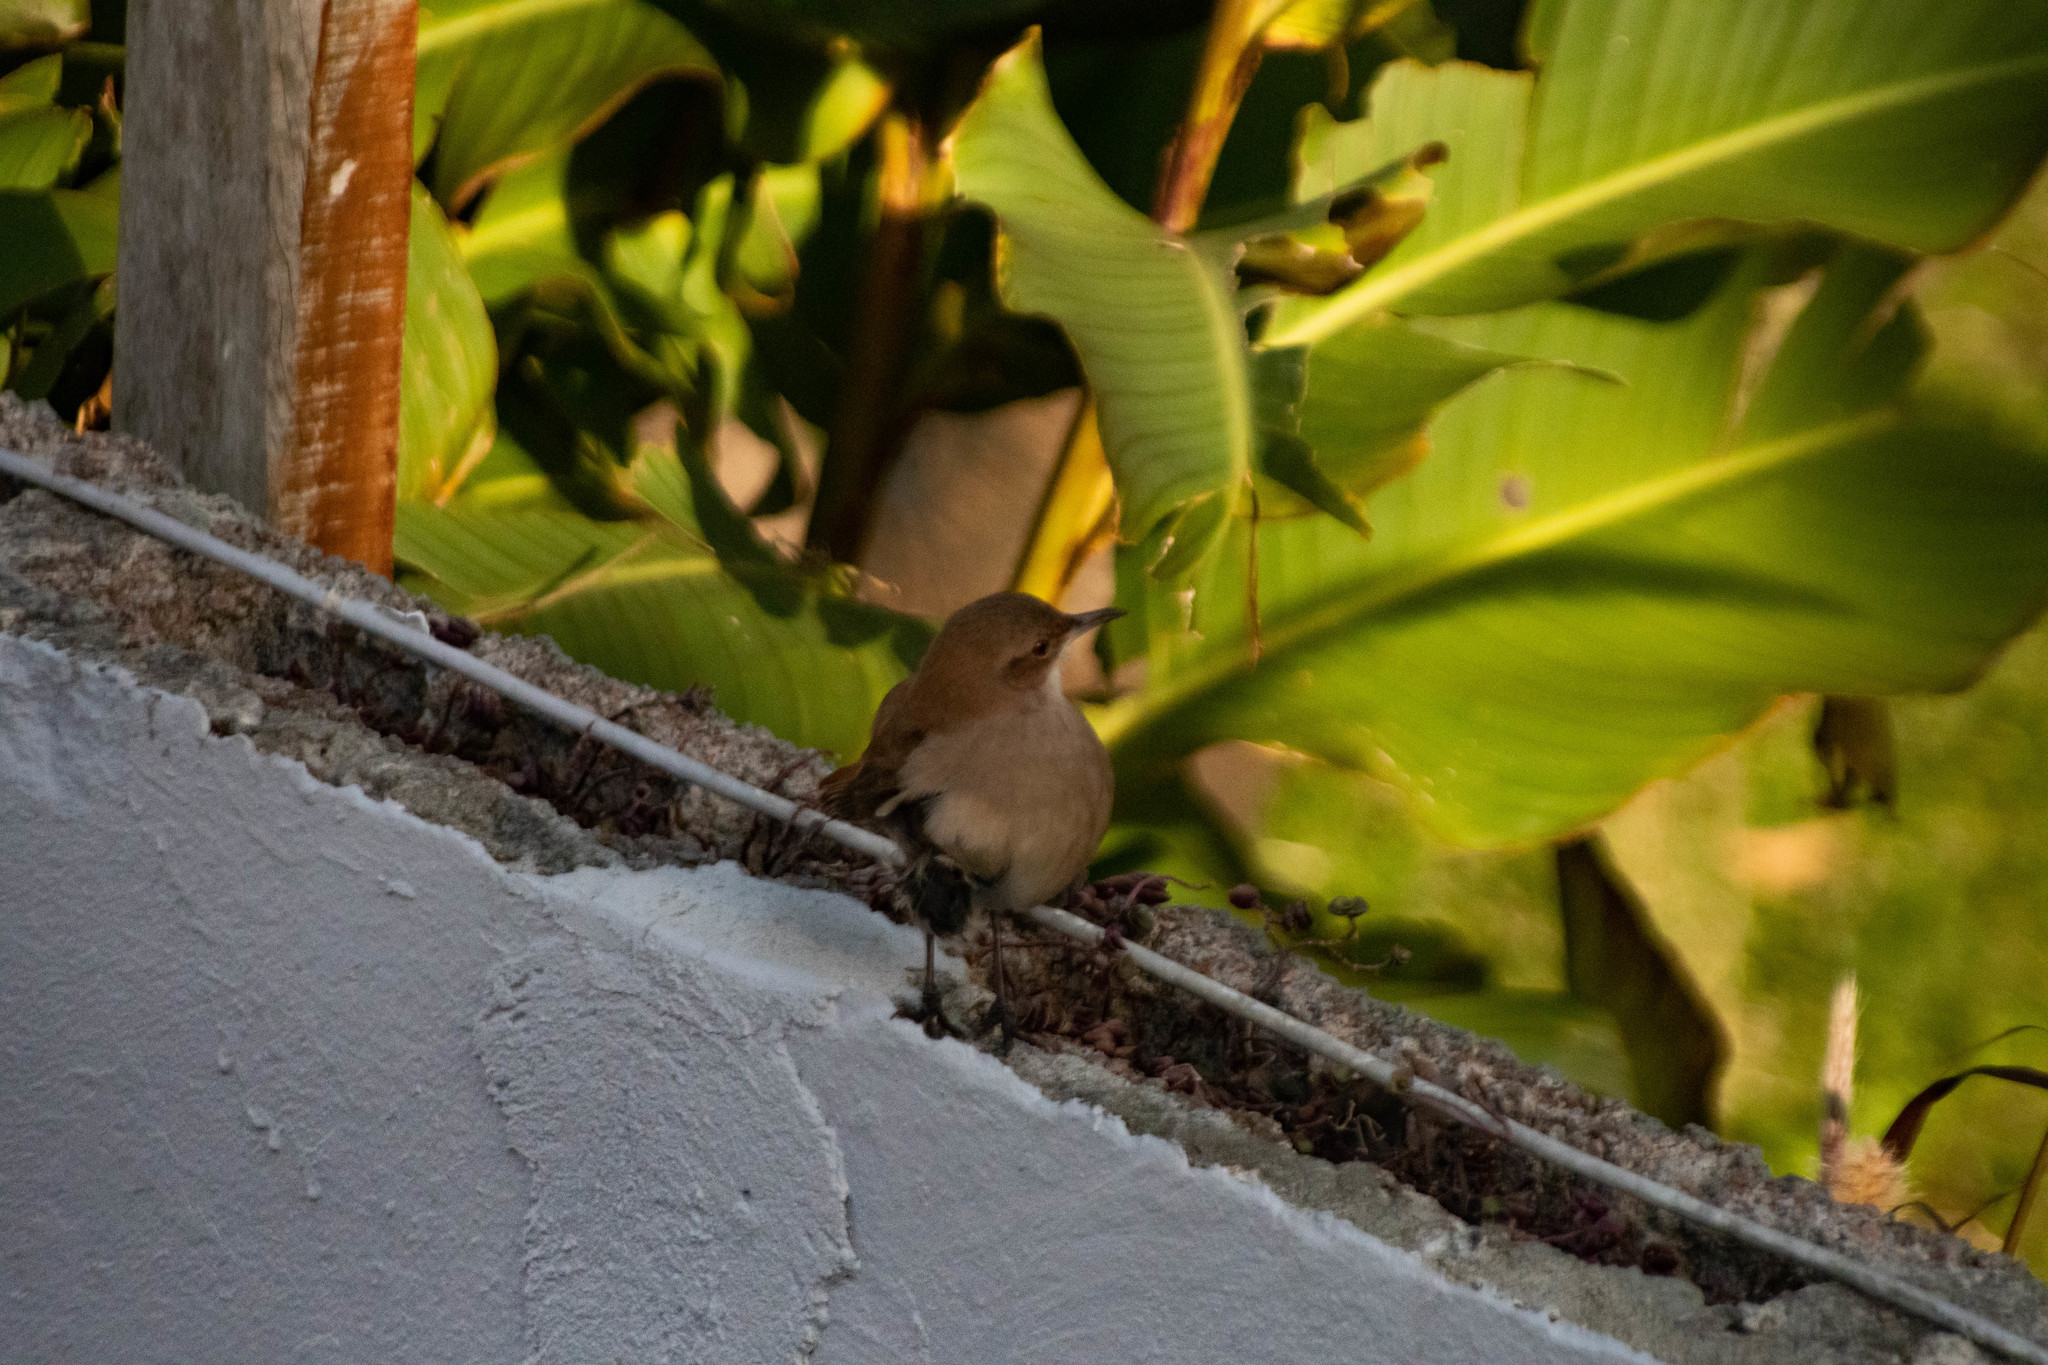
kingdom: Animalia
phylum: Chordata
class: Aves
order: Passeriformes
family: Furnariidae
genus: Furnarius
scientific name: Furnarius rufus
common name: Rufous hornero
